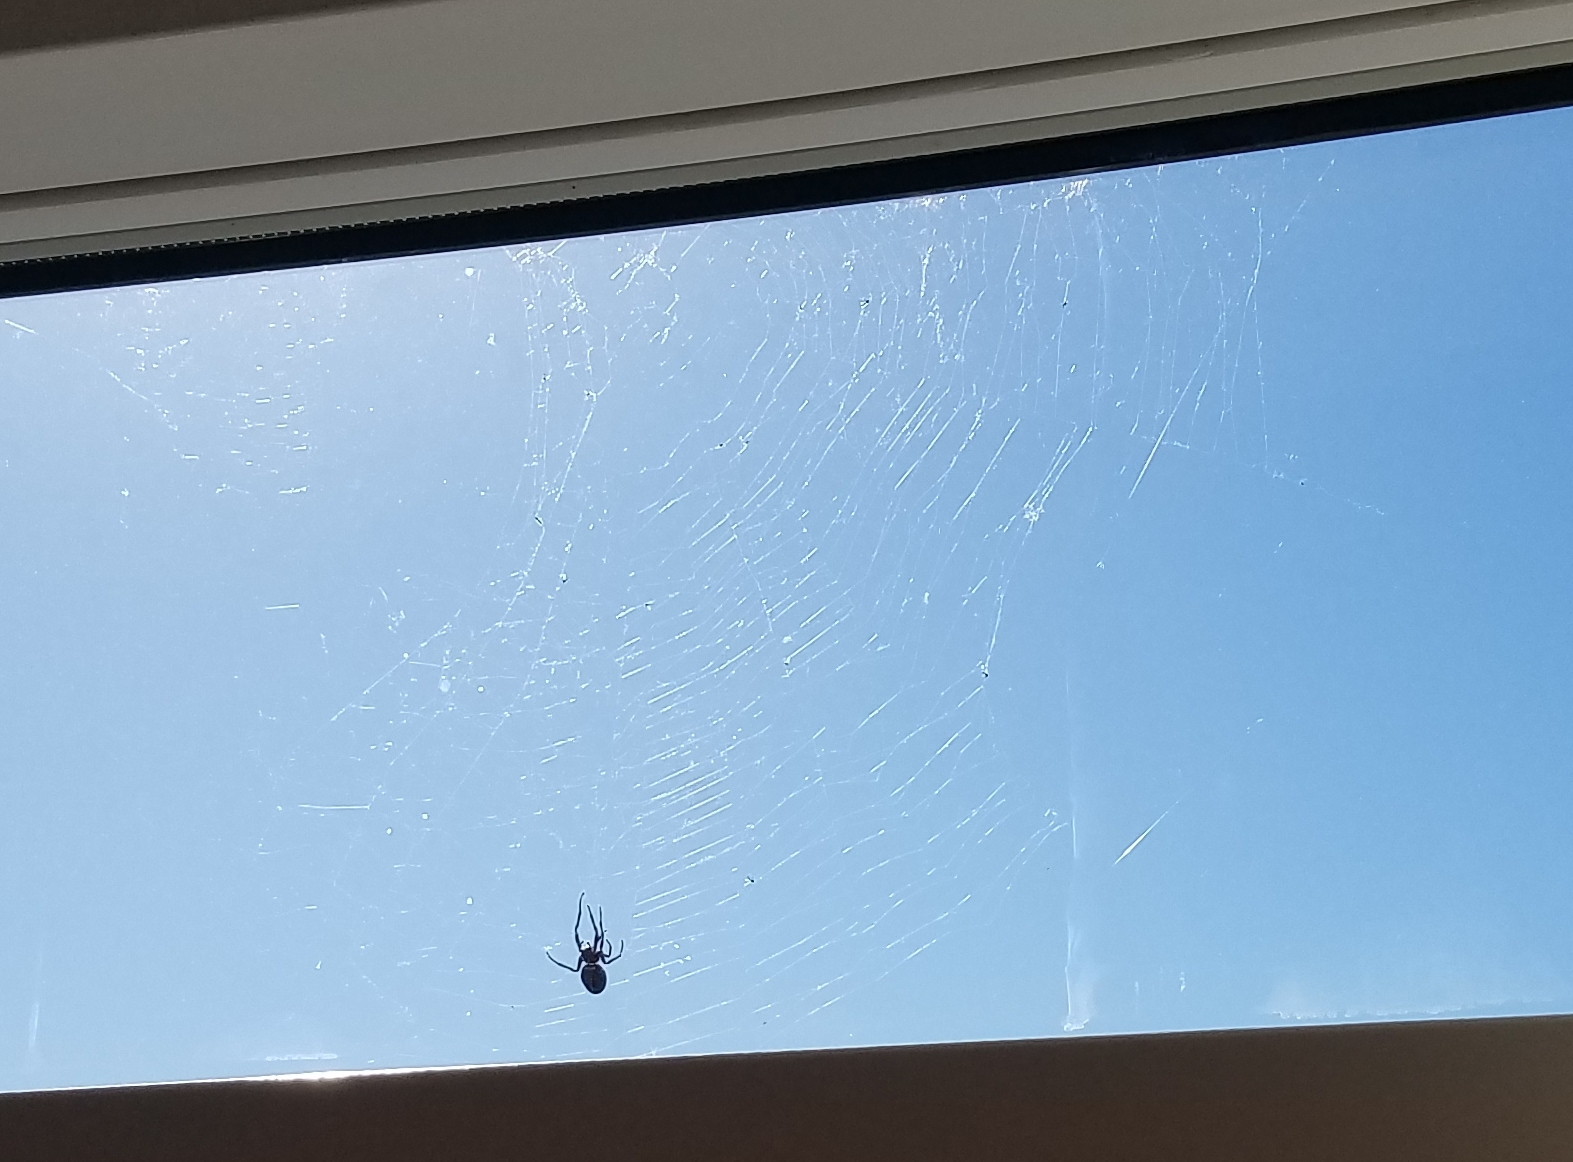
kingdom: Animalia
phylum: Arthropoda
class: Arachnida
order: Araneae
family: Araneidae
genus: Nuctenea
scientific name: Nuctenea umbratica
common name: Toad spider
